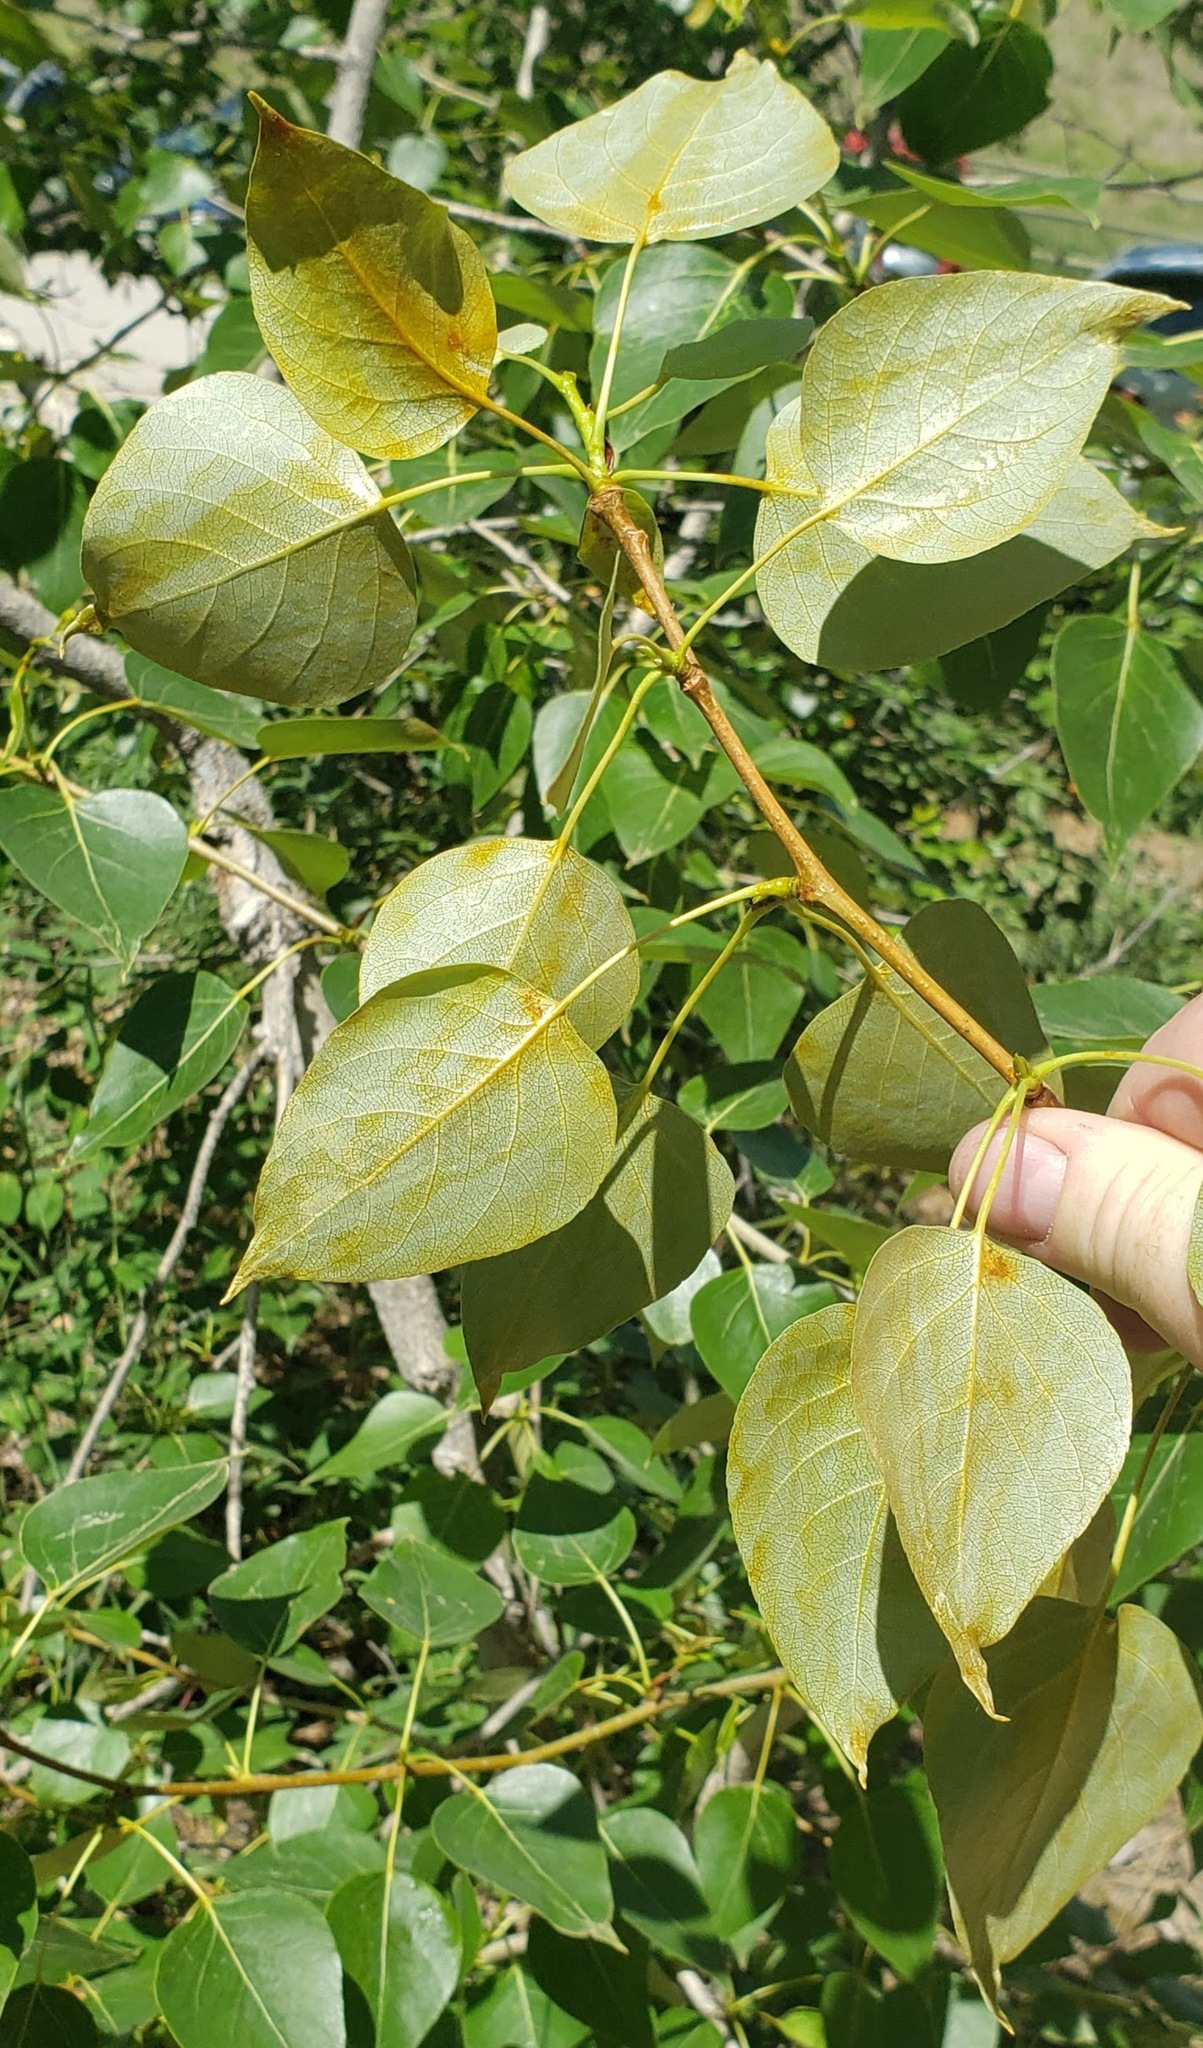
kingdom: Plantae
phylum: Tracheophyta
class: Magnoliopsida
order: Malpighiales
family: Salicaceae
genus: Populus
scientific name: Populus trichocarpa
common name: Black cottonwood
